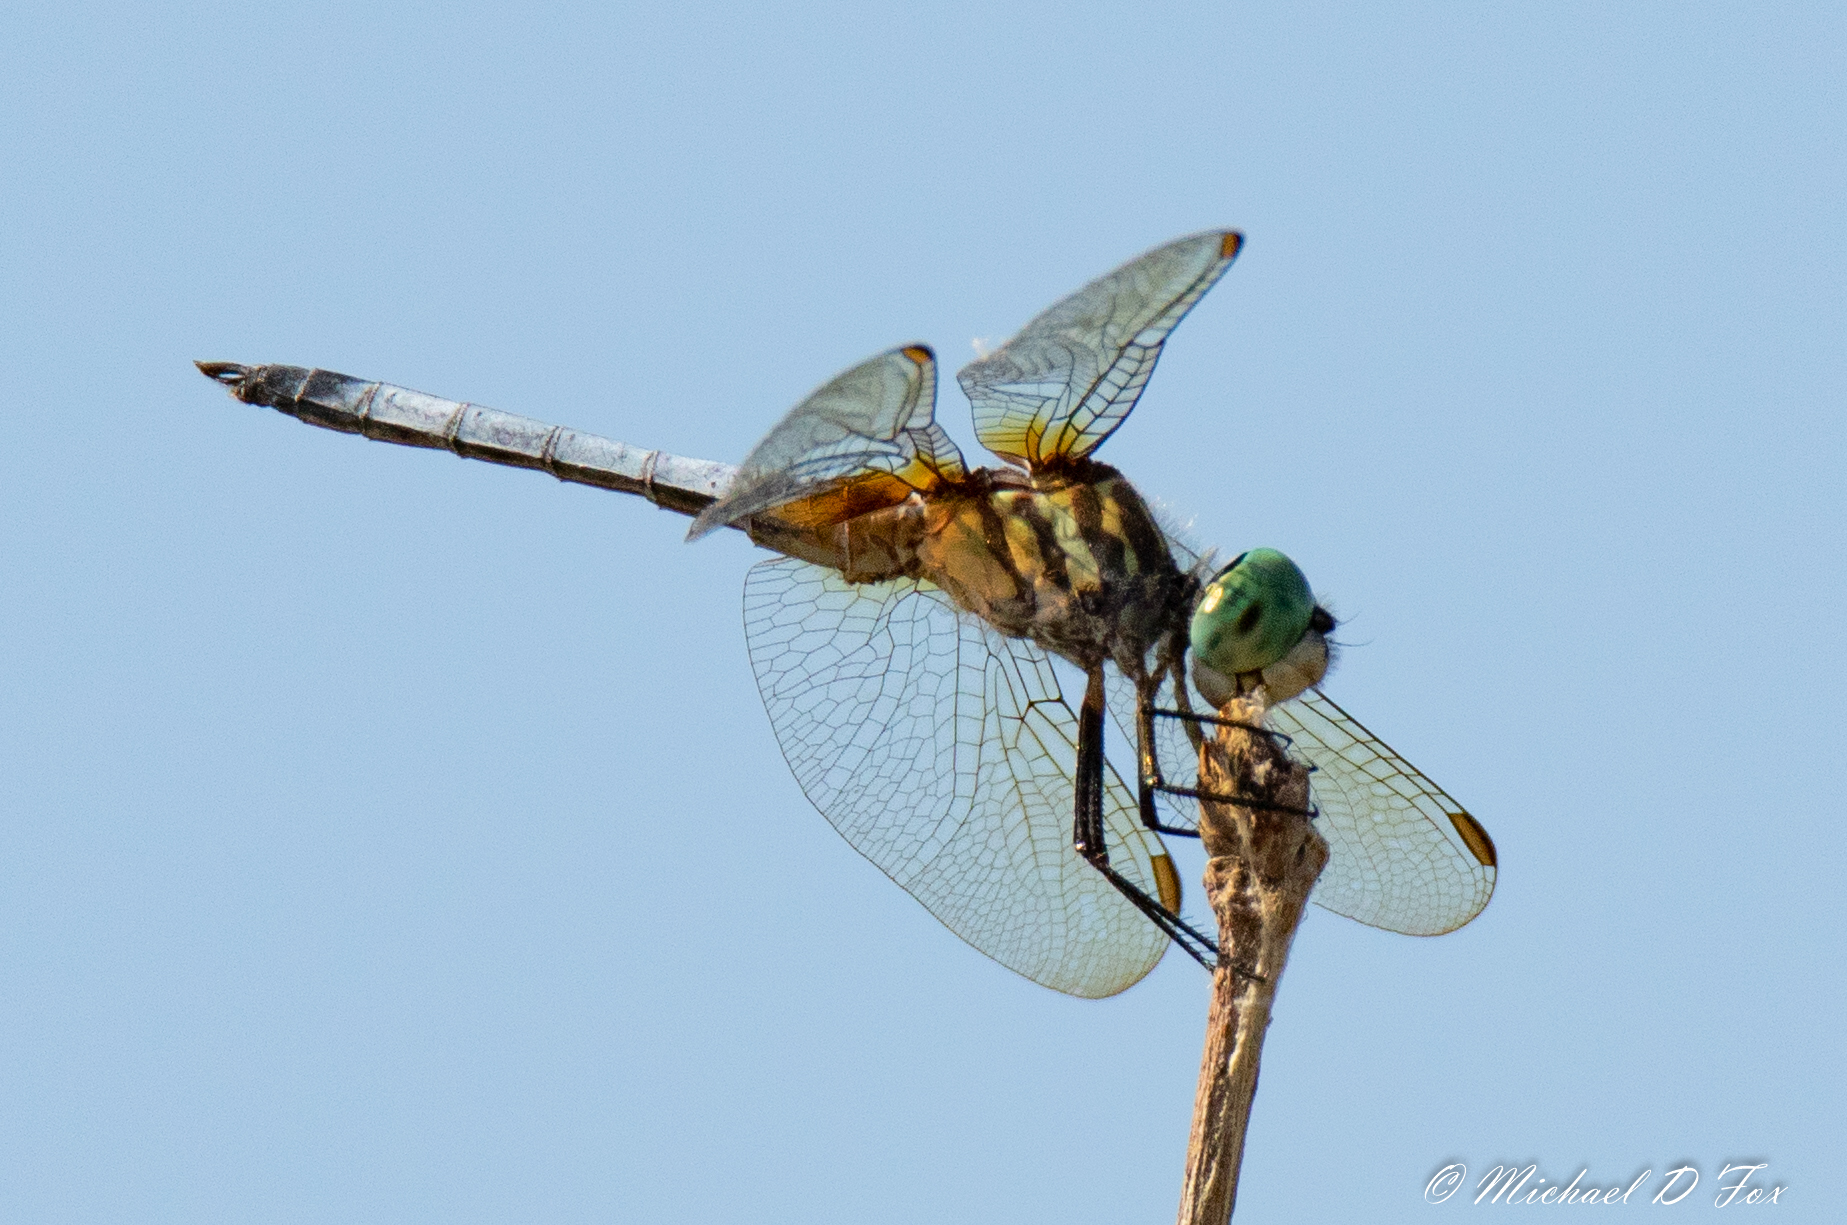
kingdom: Animalia
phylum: Arthropoda
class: Insecta
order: Odonata
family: Libellulidae
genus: Pachydiplax
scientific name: Pachydiplax longipennis
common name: Blue dasher
